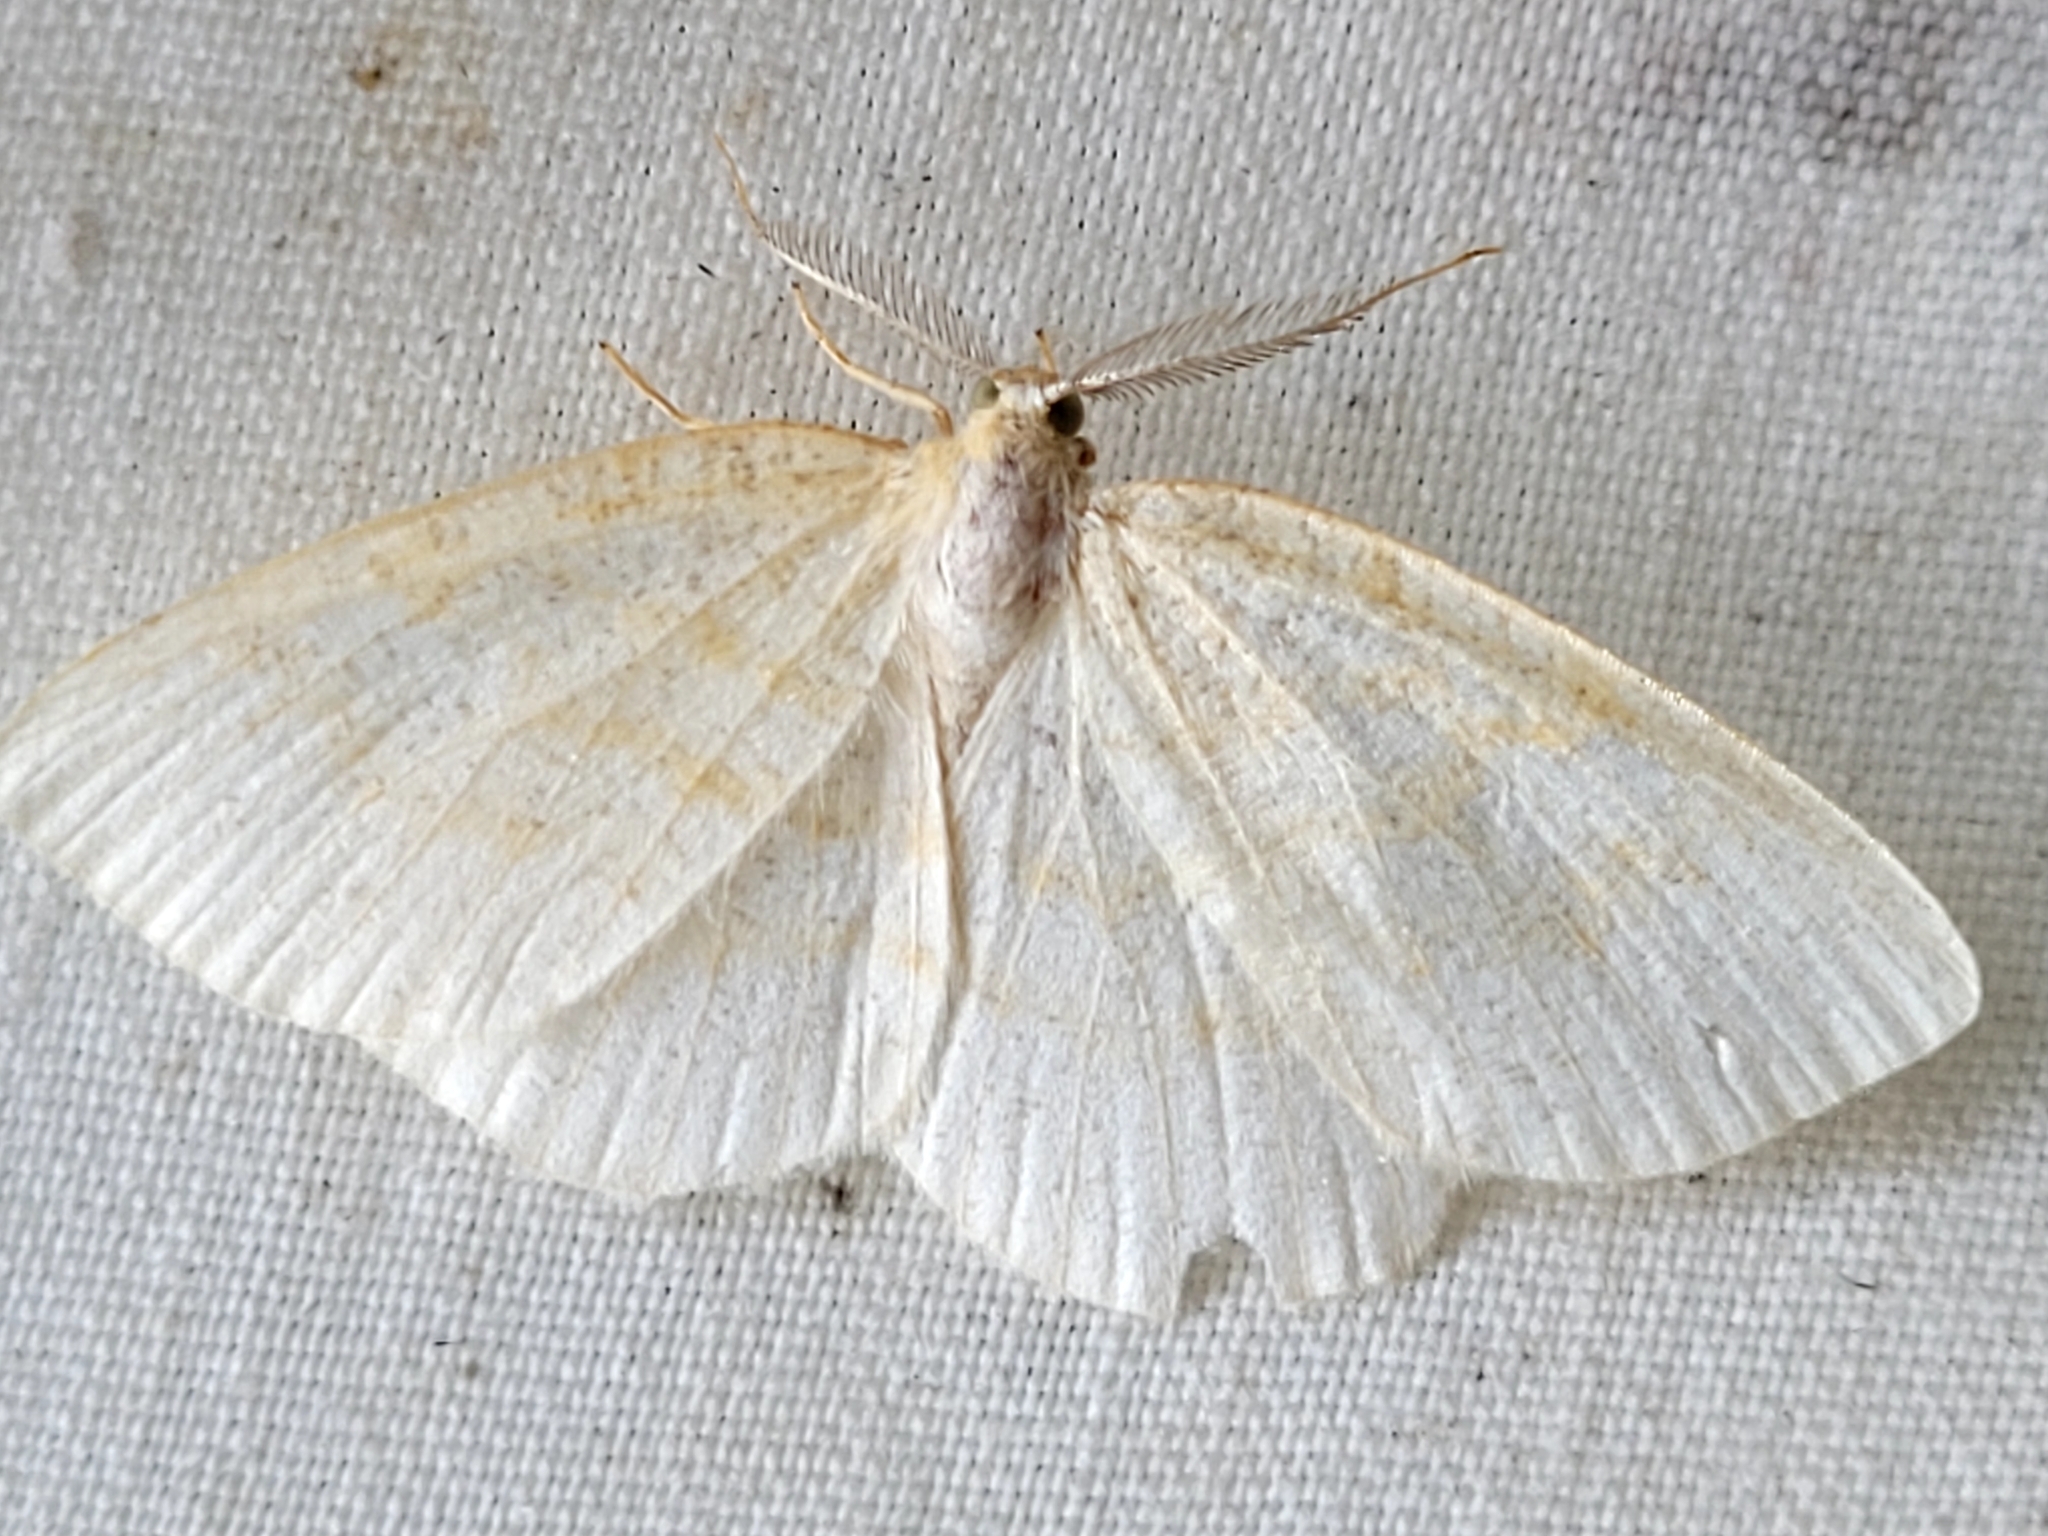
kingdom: Animalia
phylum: Arthropoda
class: Insecta
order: Lepidoptera
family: Geometridae
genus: Cabera
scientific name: Cabera erythemaria
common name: Yellow-dusted cream moth
